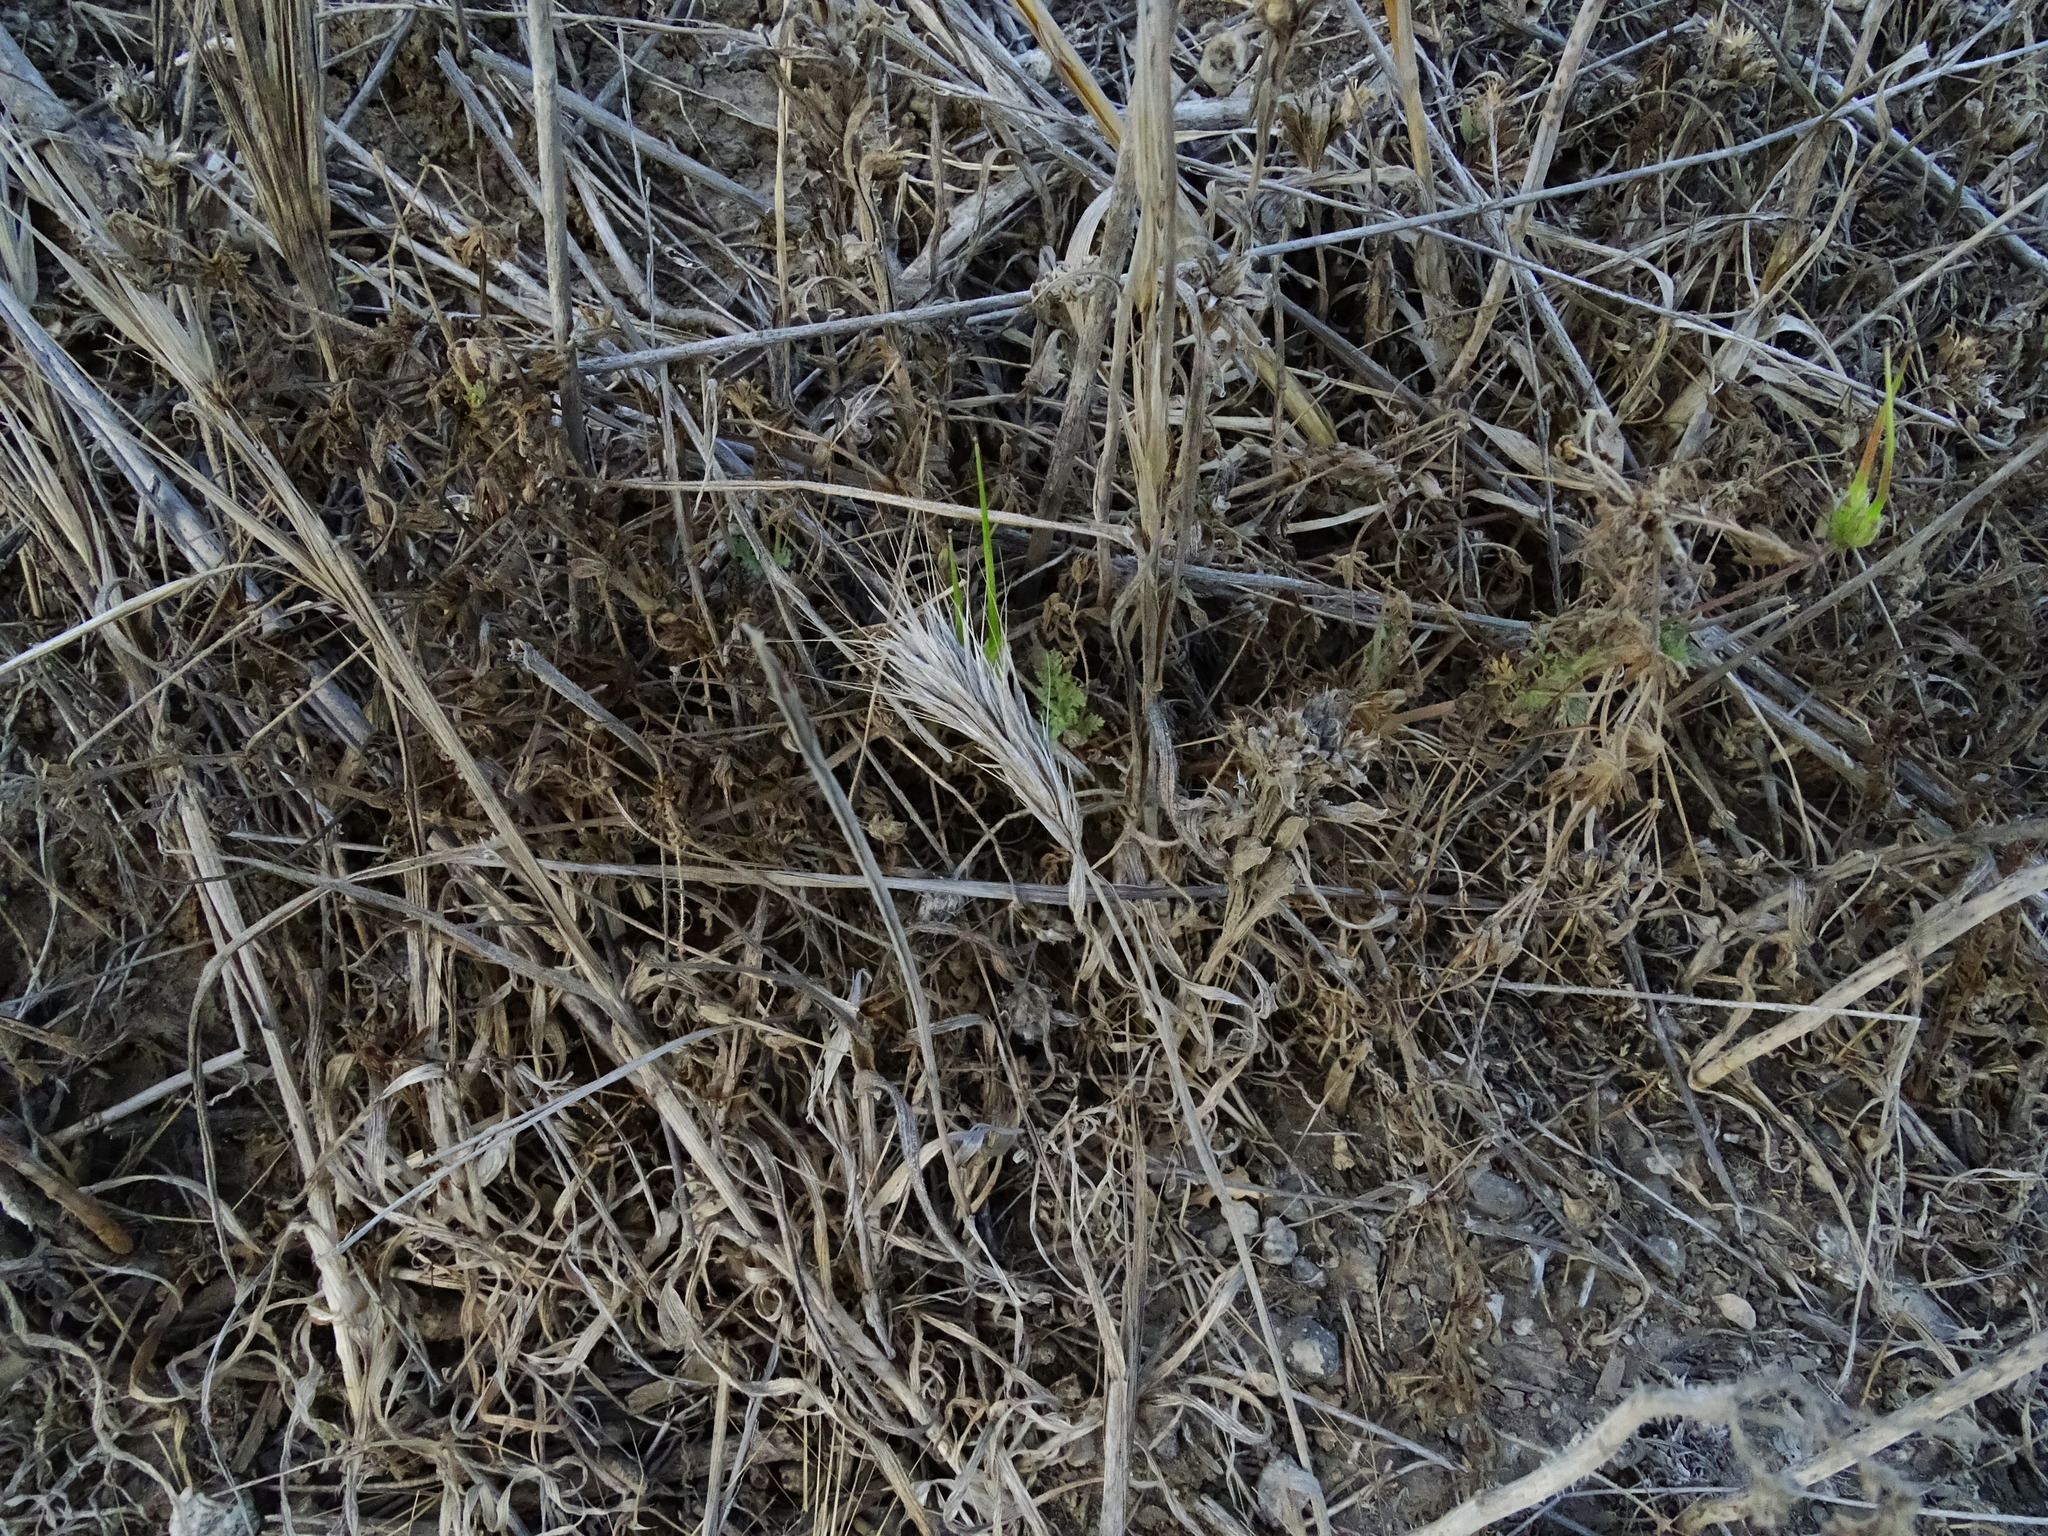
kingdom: Plantae
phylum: Tracheophyta
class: Liliopsida
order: Poales
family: Poaceae
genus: Bromus
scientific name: Bromus madritensis
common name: Compact brome
